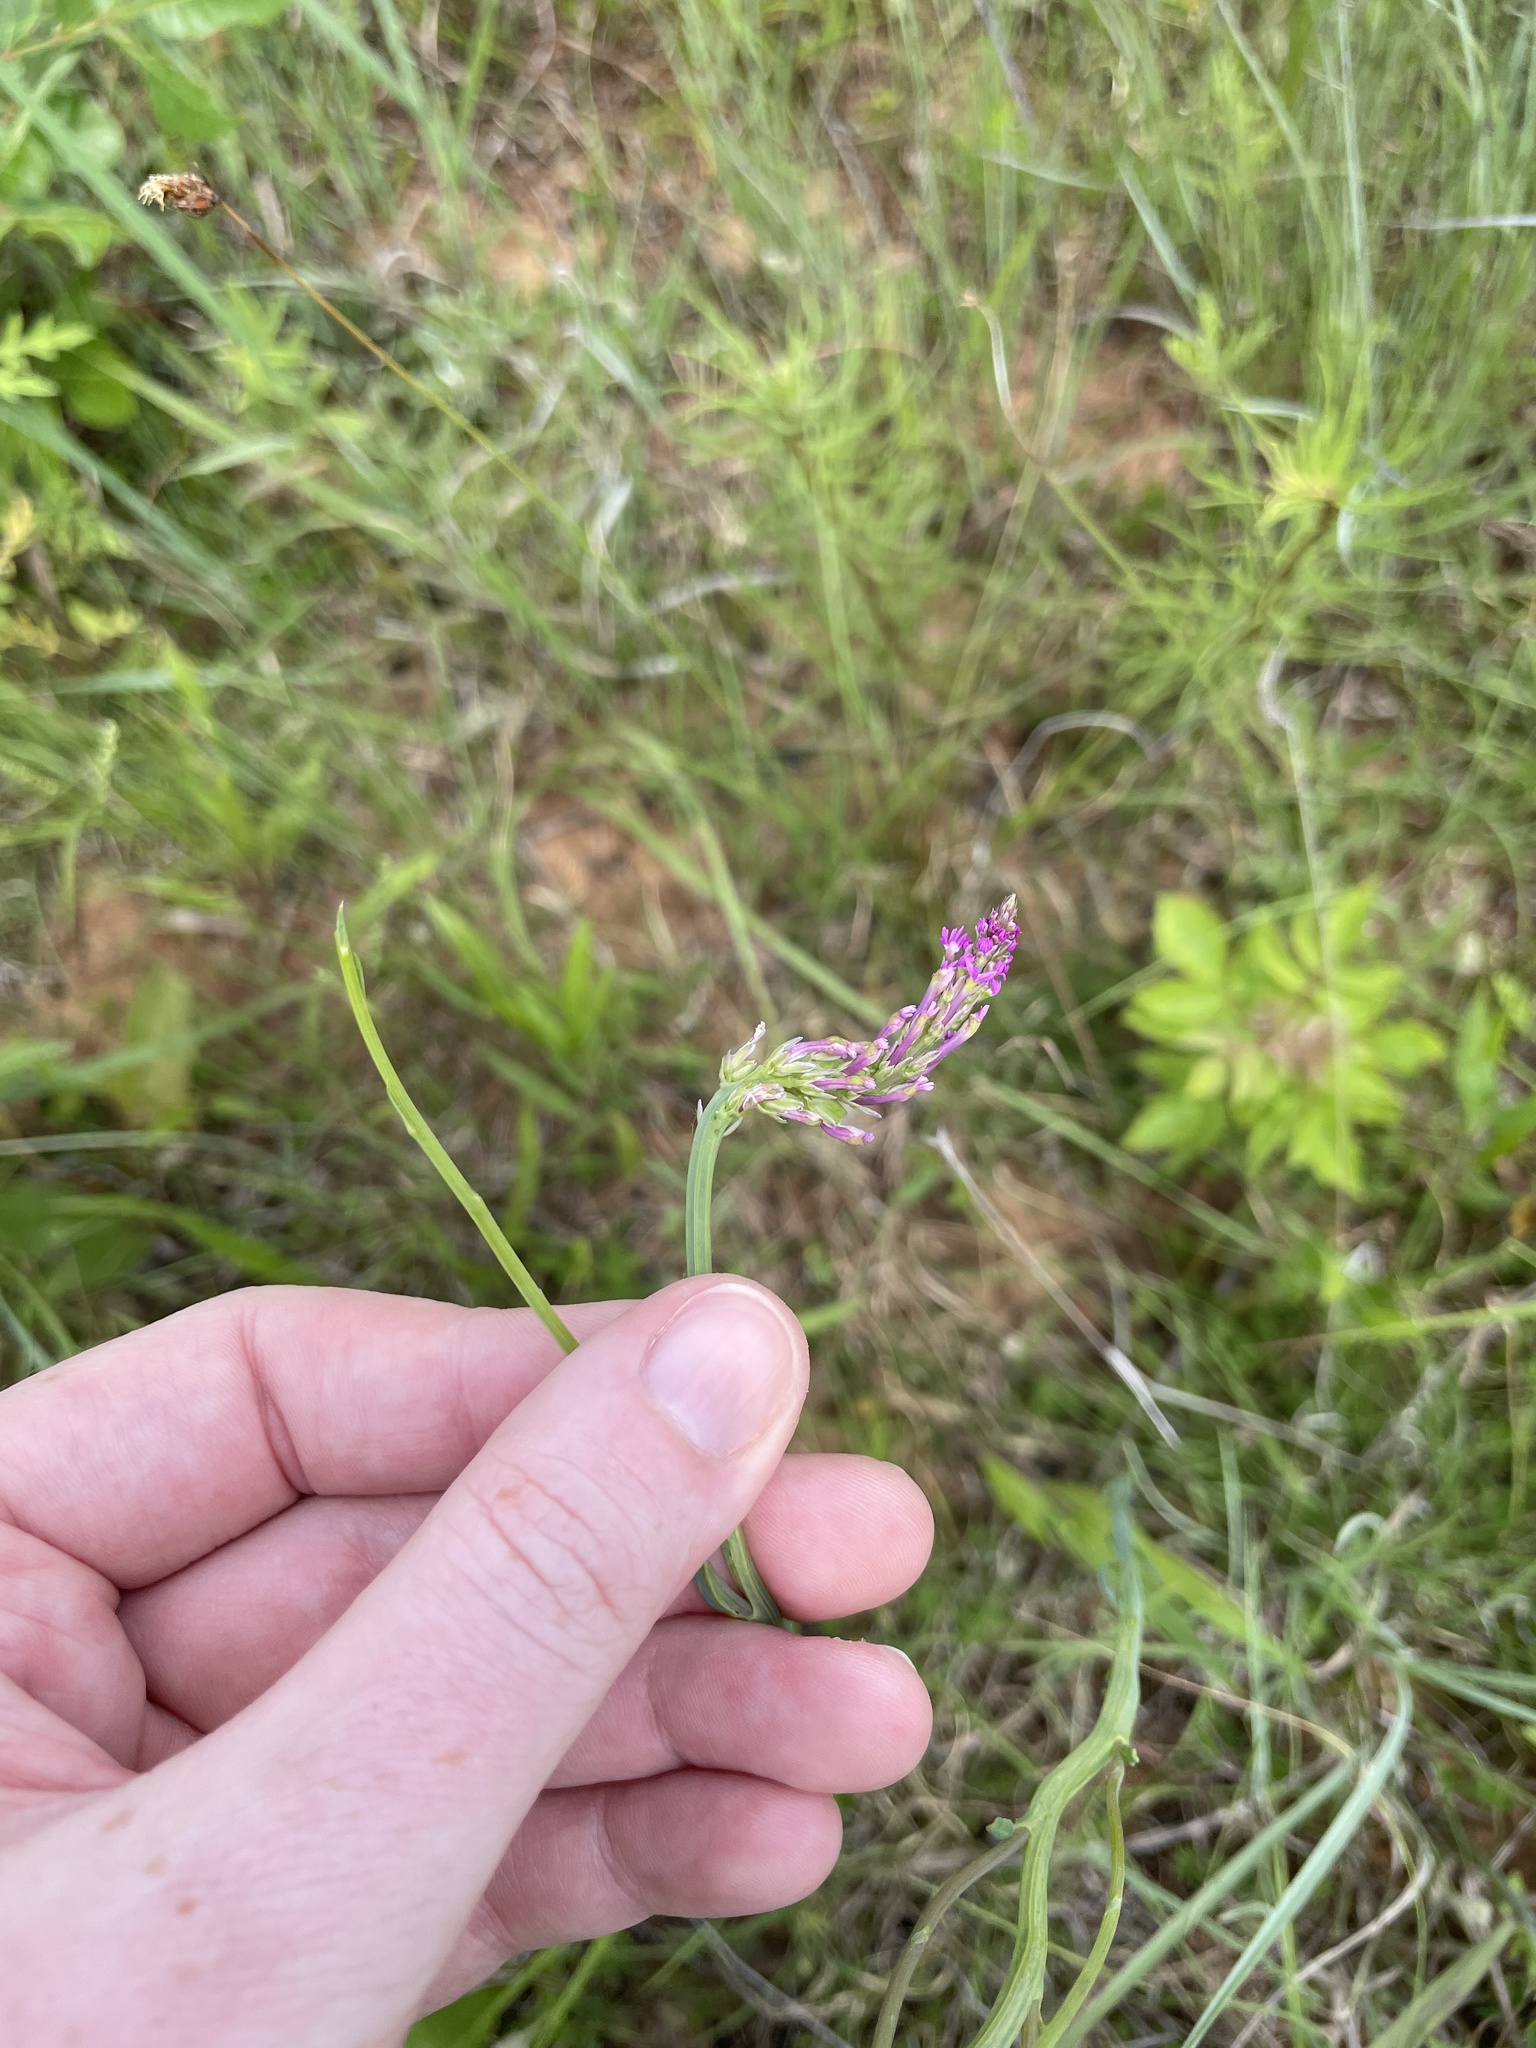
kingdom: Plantae
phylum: Tracheophyta
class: Magnoliopsida
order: Fabales
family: Polygalaceae
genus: Polygala
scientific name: Polygala incarnata
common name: Pink milkwort
